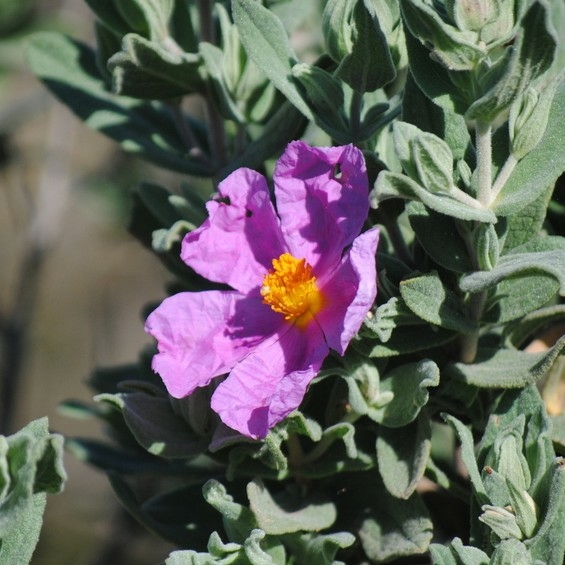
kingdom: Plantae
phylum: Tracheophyta
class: Magnoliopsida
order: Malvales
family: Cistaceae
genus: Cistus
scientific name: Cistus albidus
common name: White-leaf rock-rose
